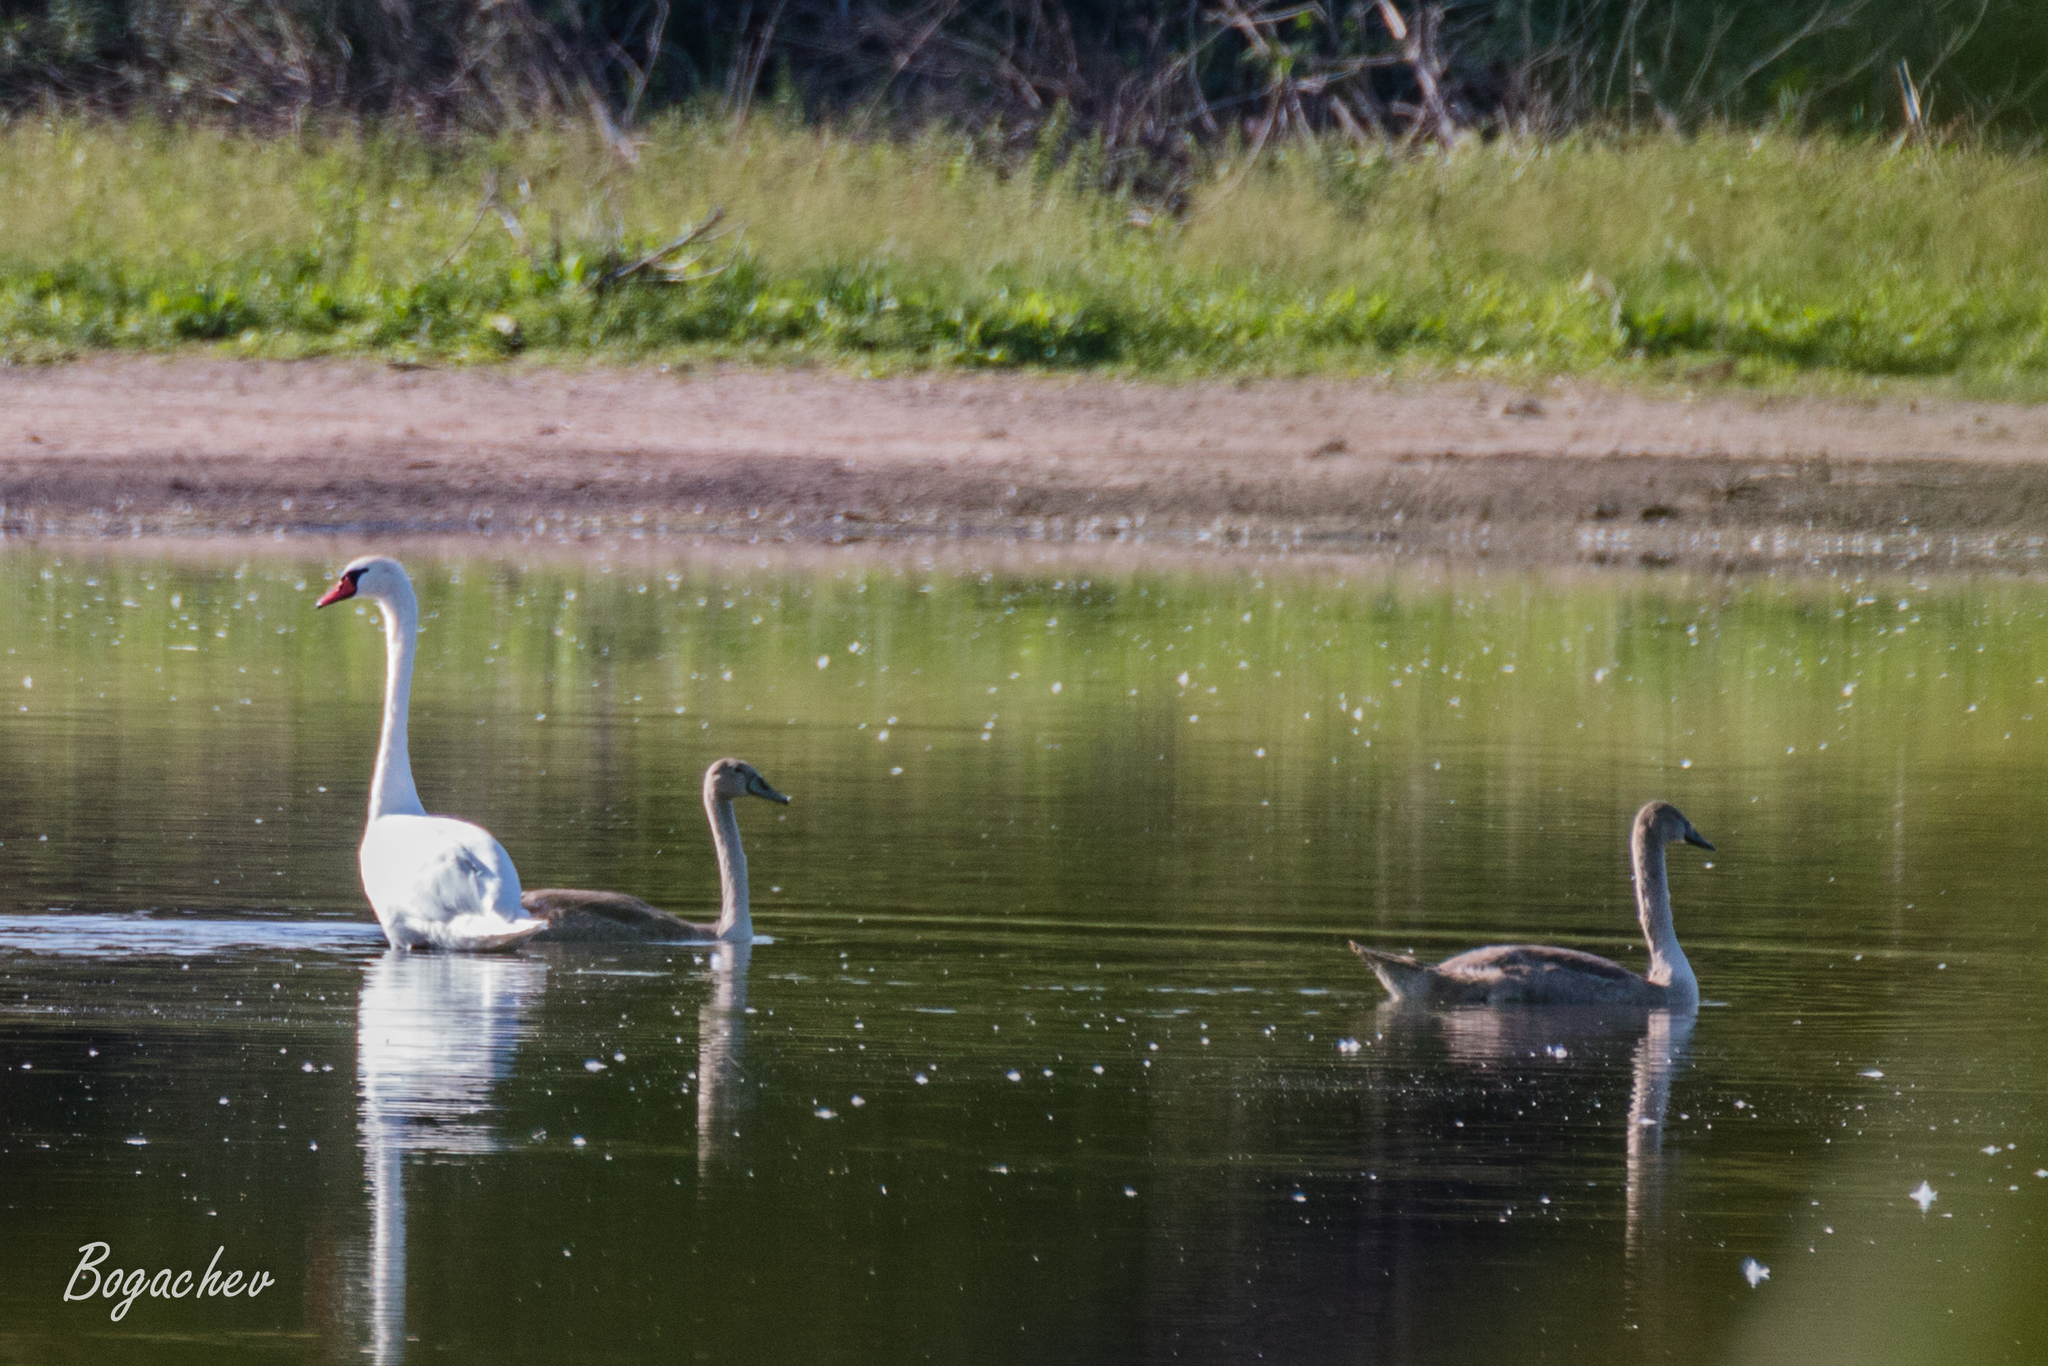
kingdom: Animalia
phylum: Chordata
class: Aves
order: Anseriformes
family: Anatidae
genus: Cygnus
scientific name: Cygnus olor
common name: Mute swan
